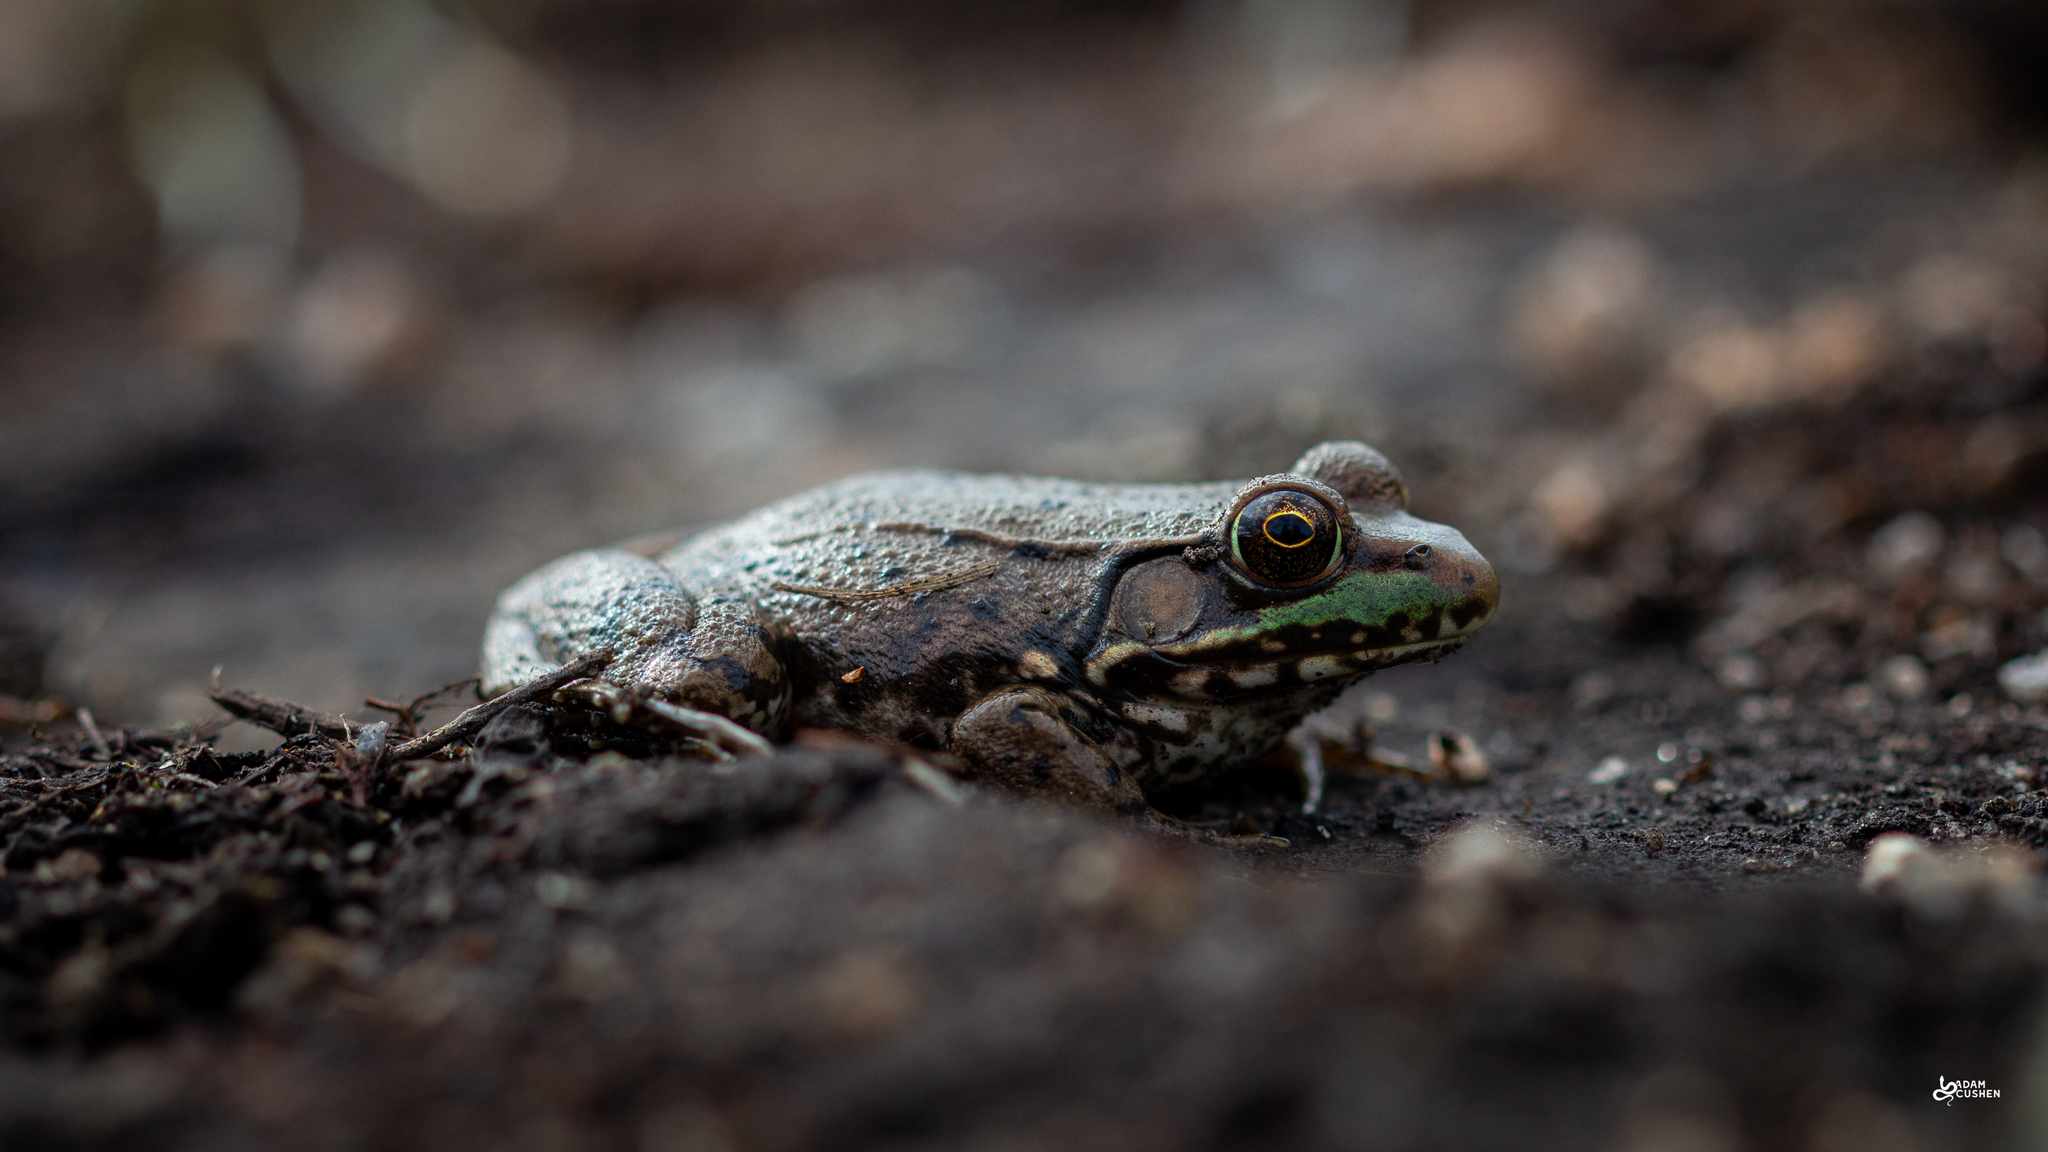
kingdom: Animalia
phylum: Chordata
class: Amphibia
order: Anura
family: Ranidae
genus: Lithobates
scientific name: Lithobates clamitans
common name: Green frog
